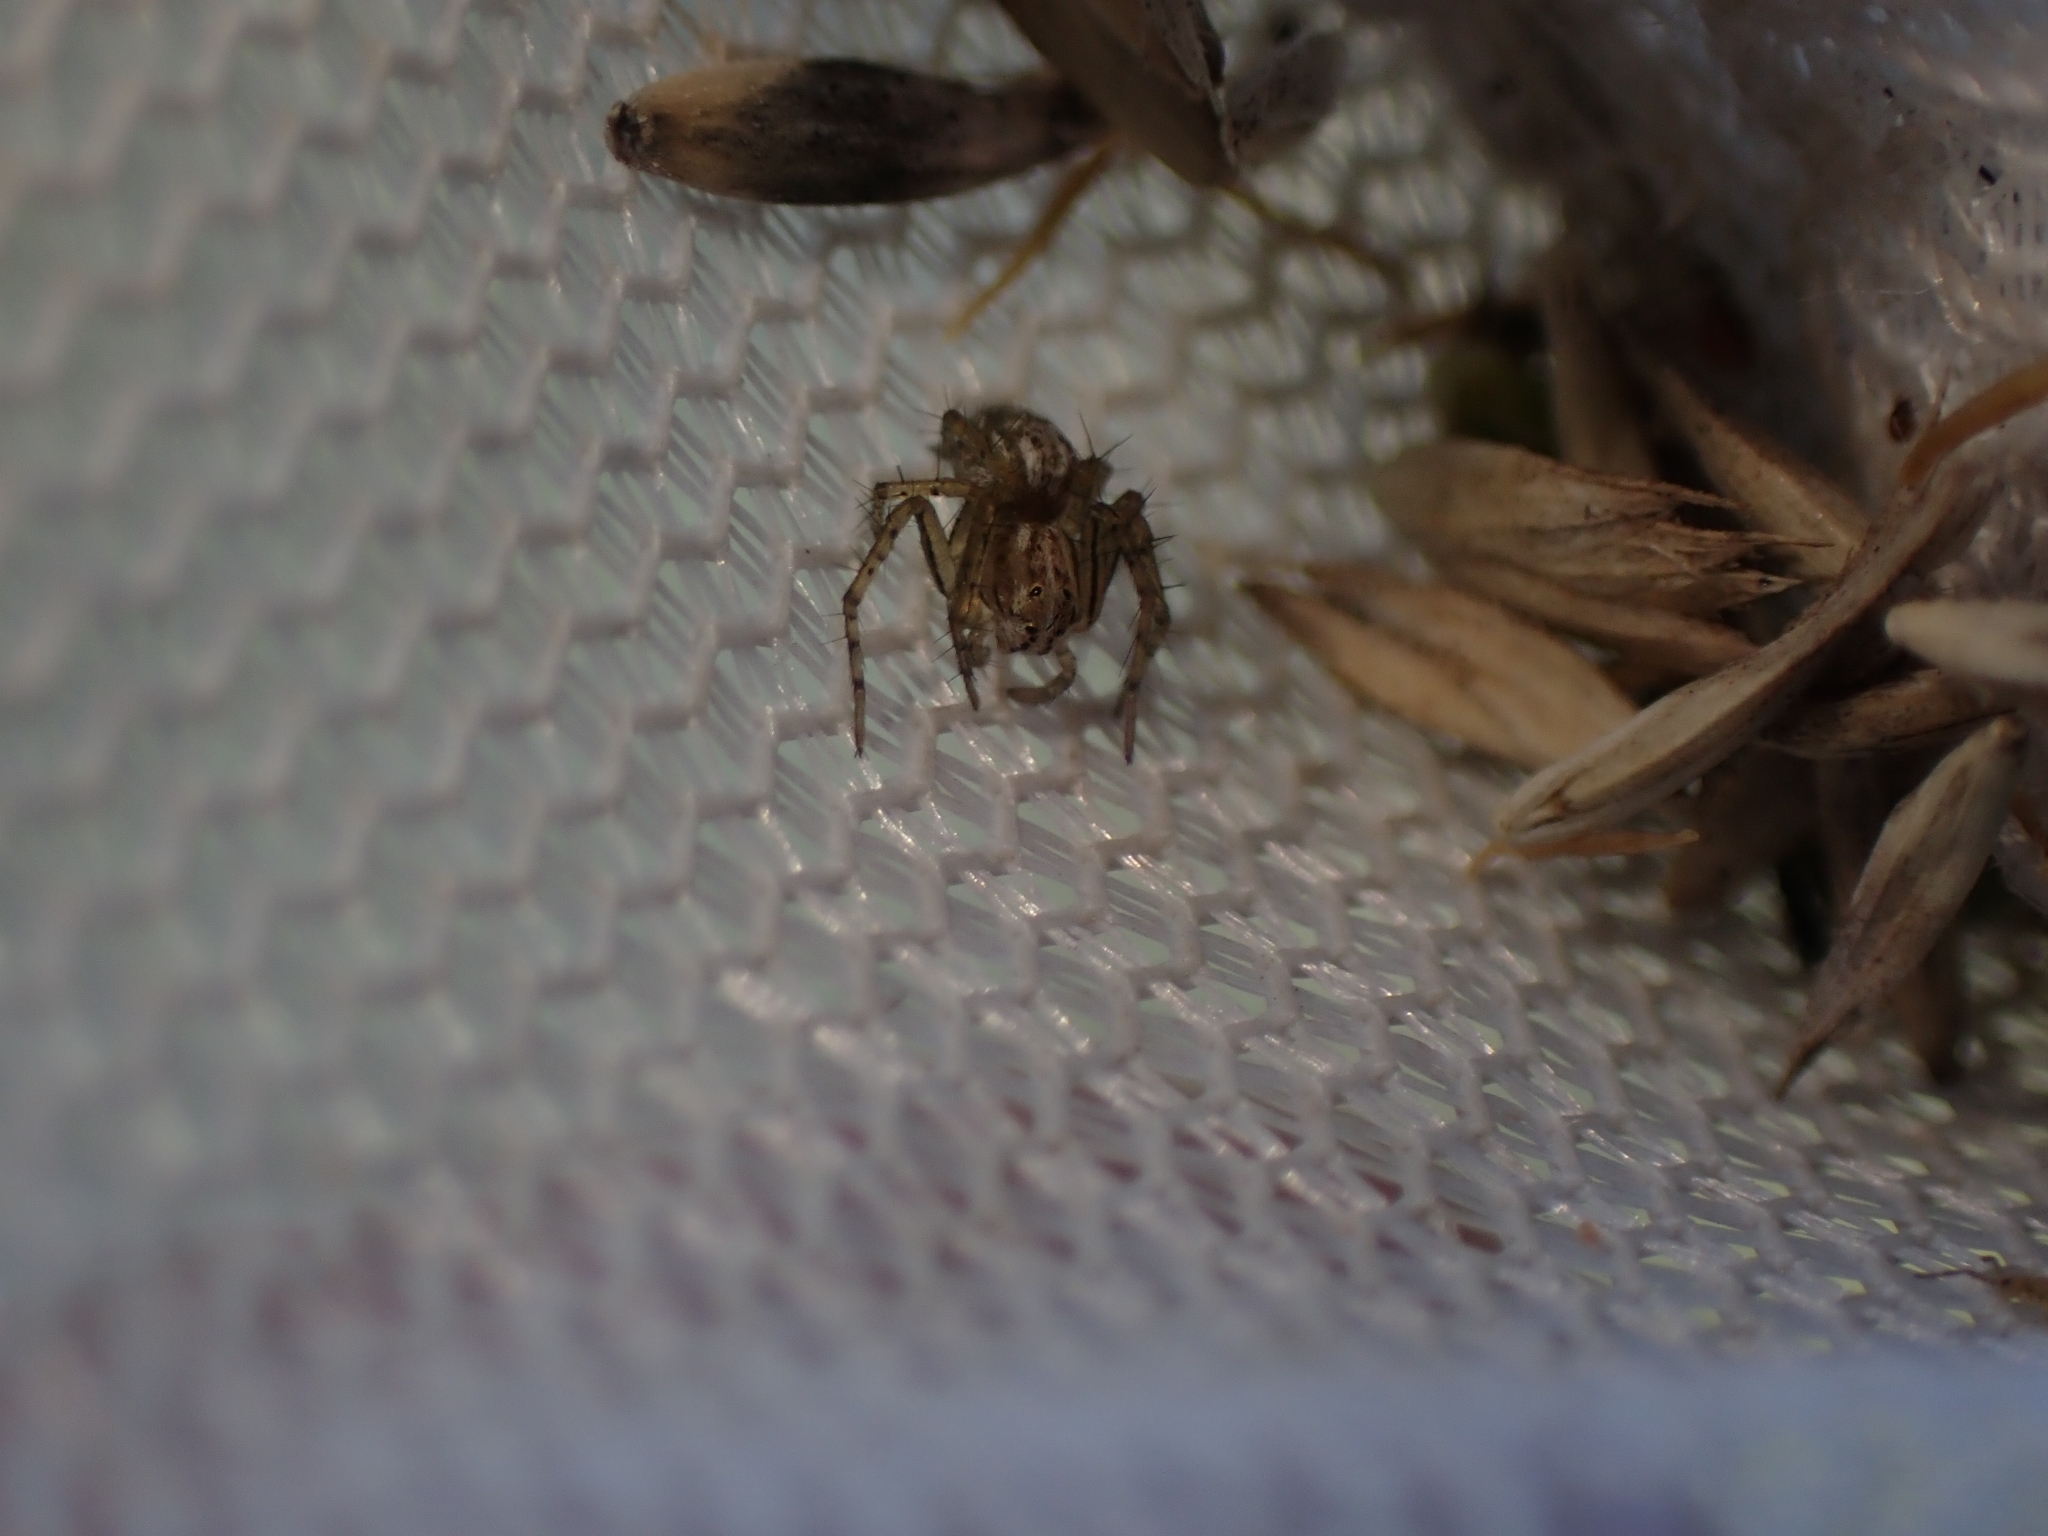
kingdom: Animalia
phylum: Arthropoda
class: Arachnida
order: Araneae
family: Oxyopidae
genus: Oxyopes
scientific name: Oxyopes gracilipes
